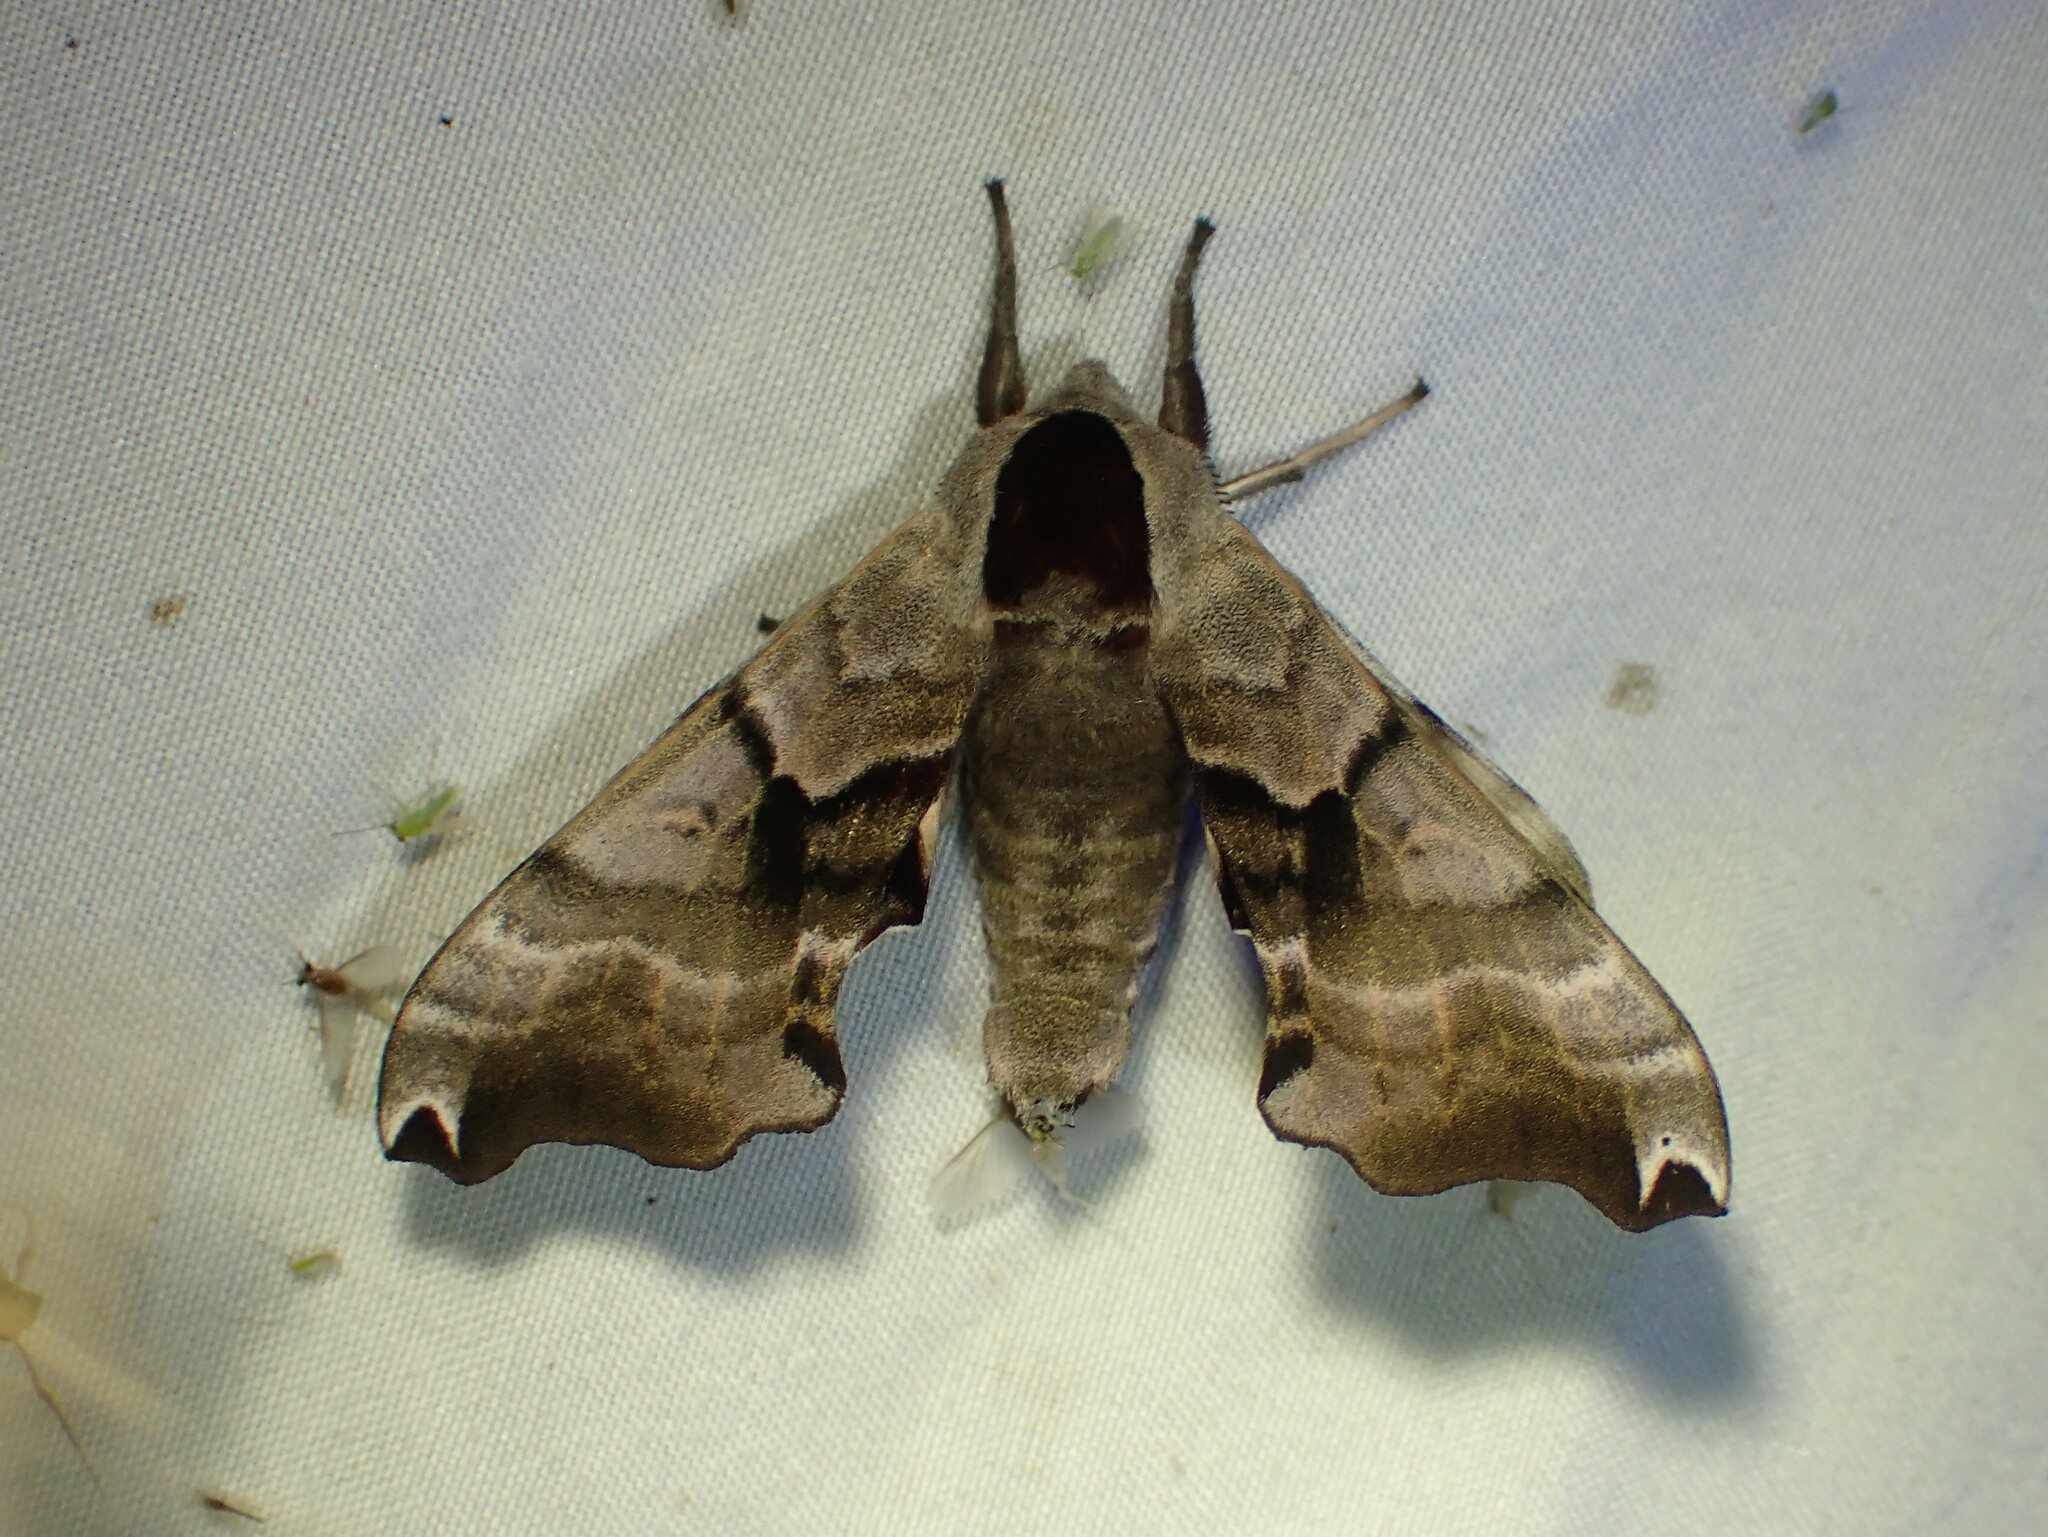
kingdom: Animalia
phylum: Arthropoda
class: Insecta
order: Lepidoptera
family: Sphingidae
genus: Smerinthus
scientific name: Smerinthus jamaicensis
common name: Twin spotted sphinx
